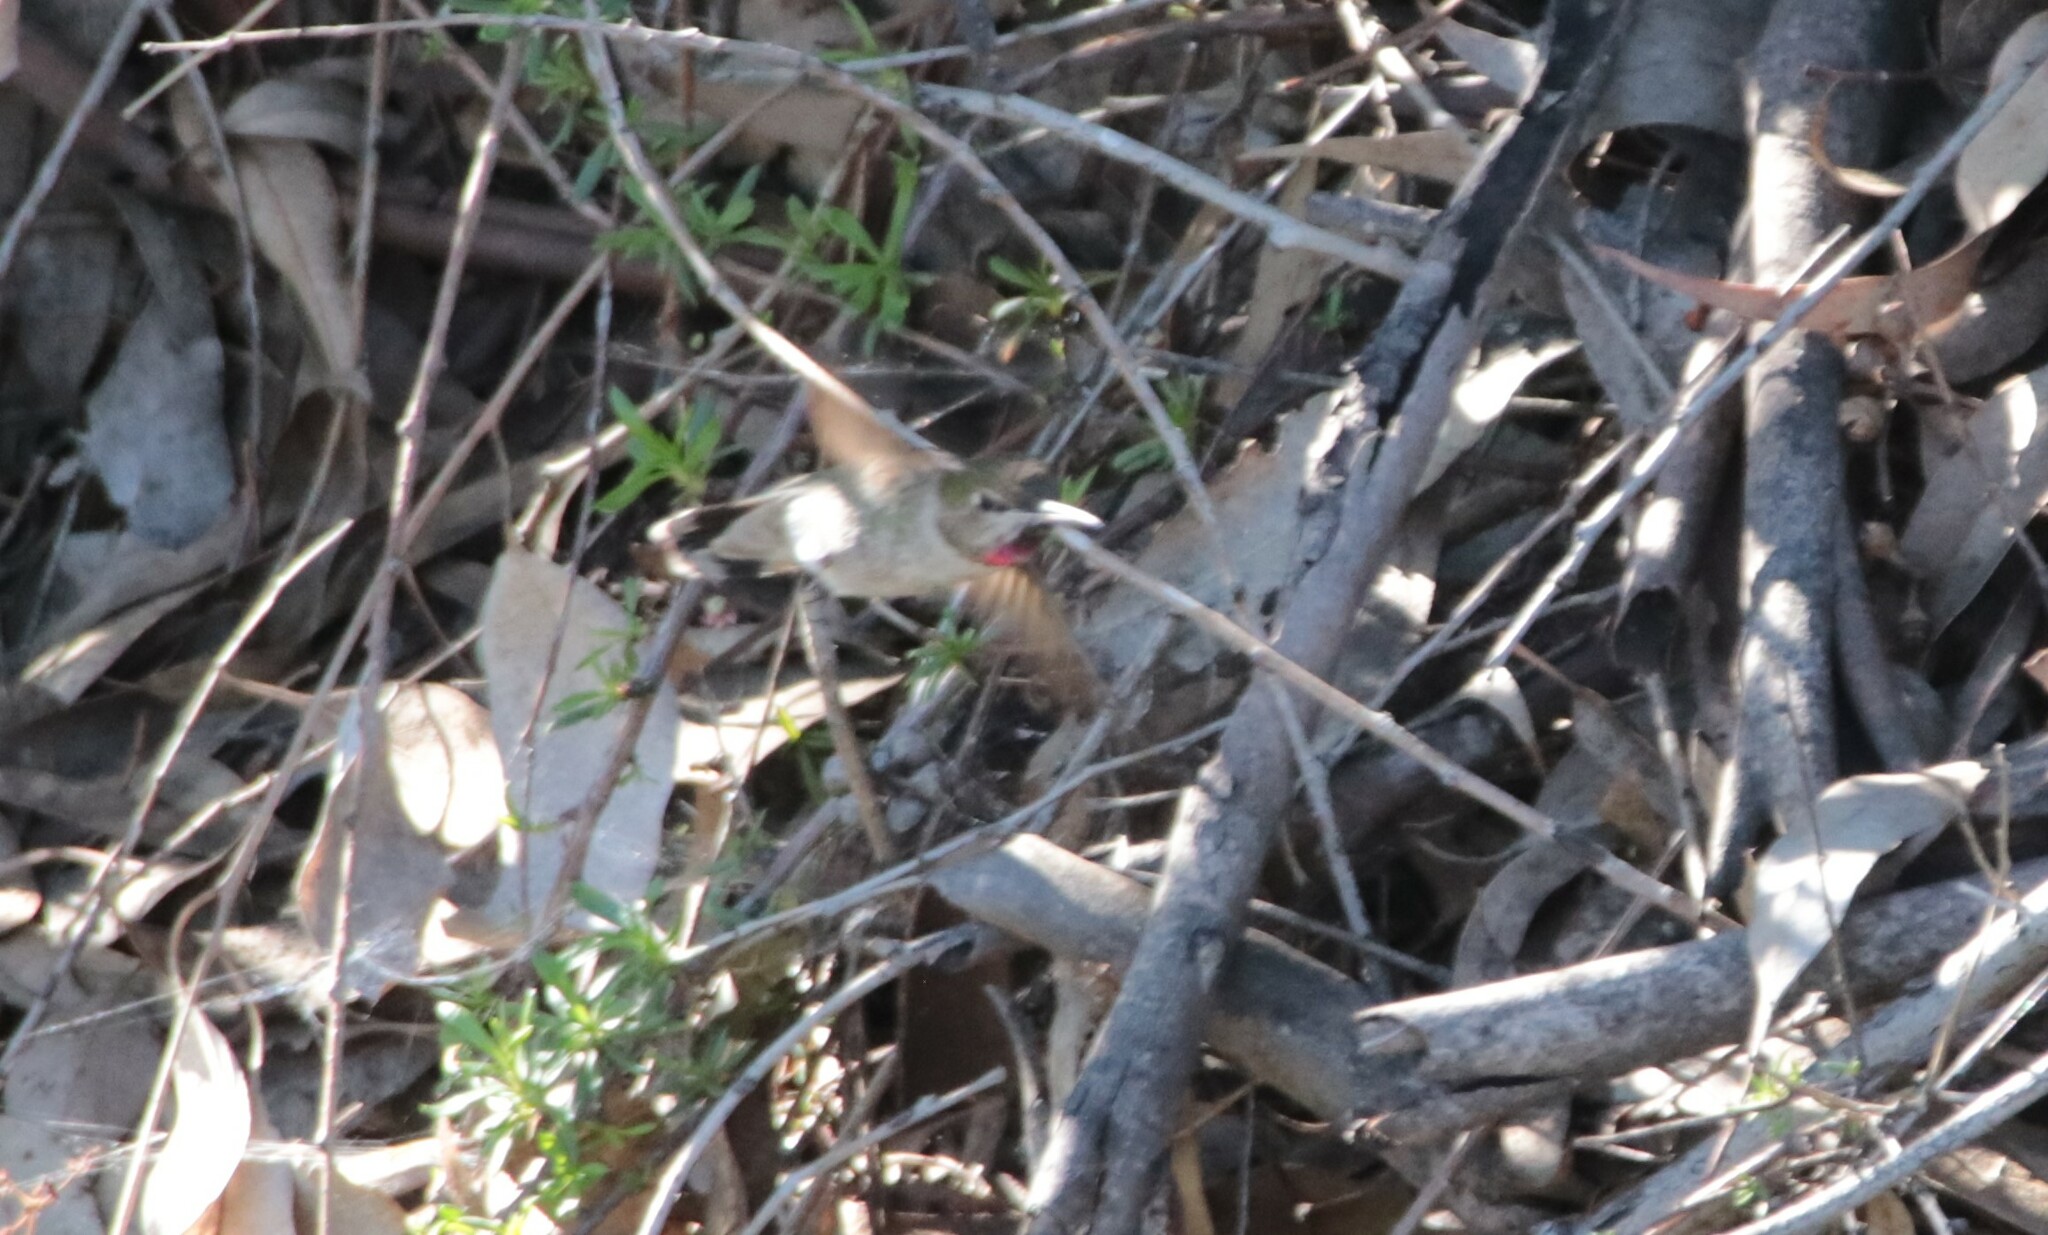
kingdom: Animalia
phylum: Chordata
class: Aves
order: Apodiformes
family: Trochilidae
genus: Calypte
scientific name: Calypte anna
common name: Anna's hummingbird
